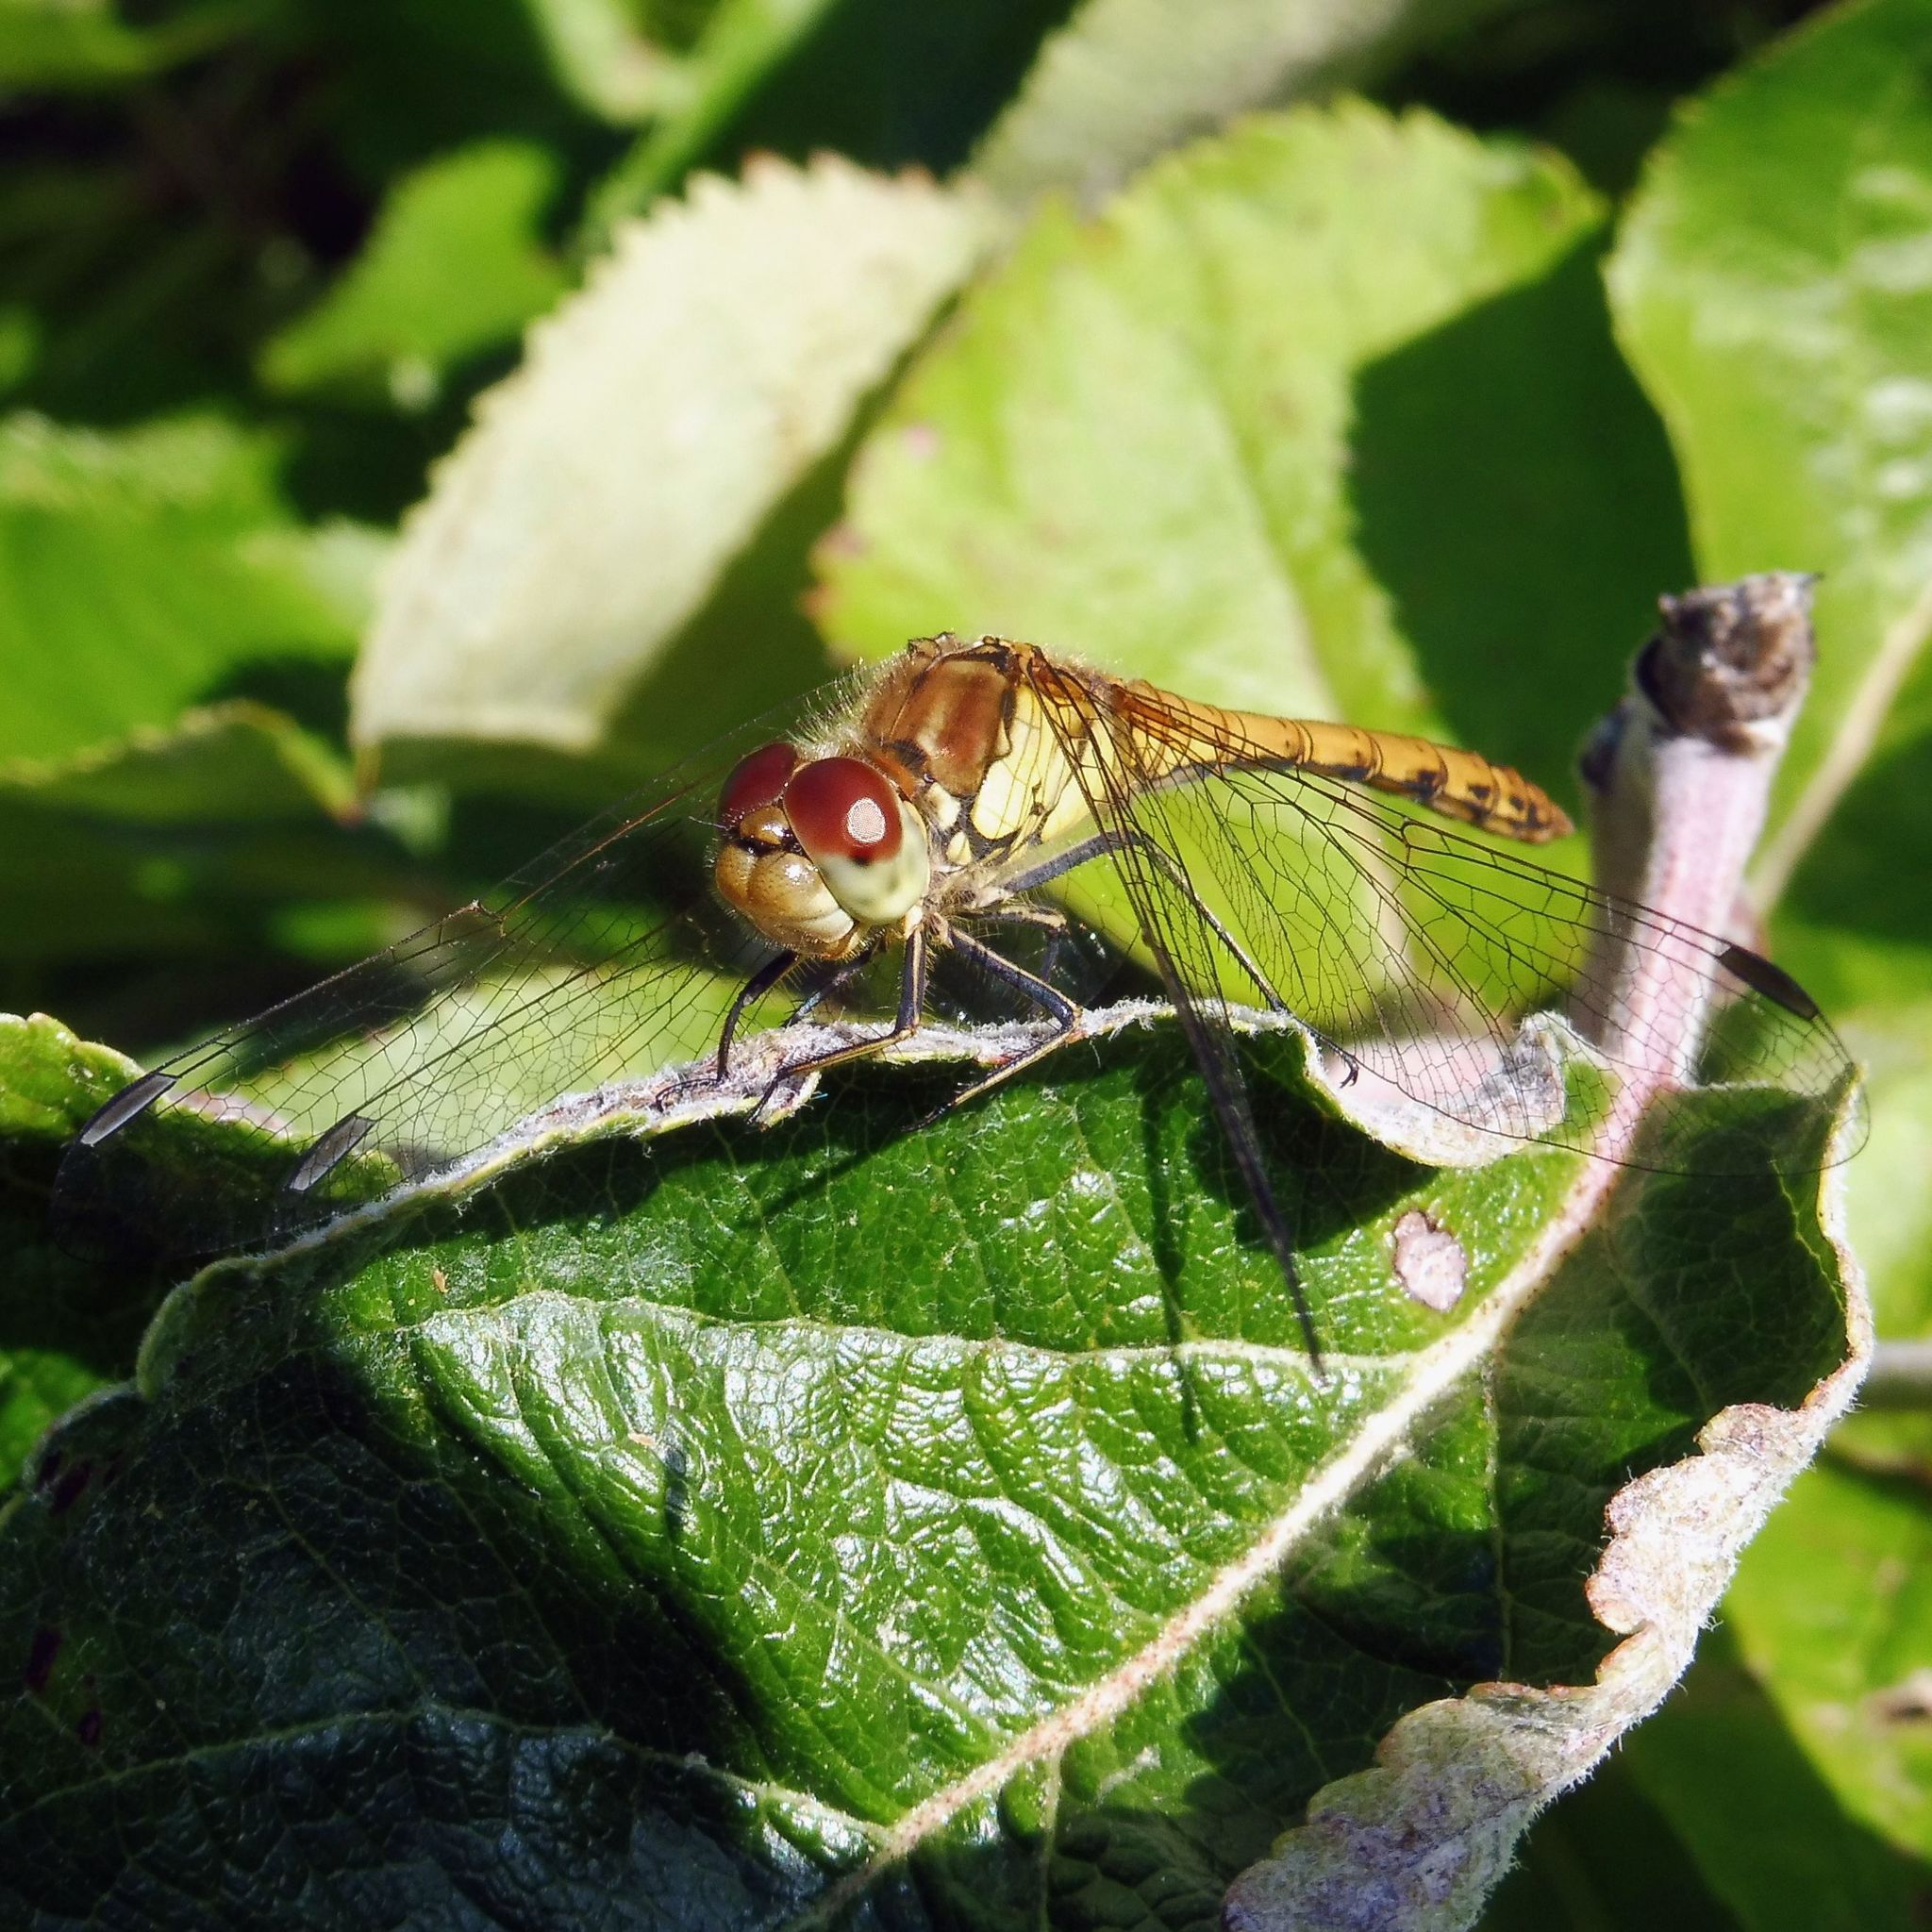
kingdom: Animalia
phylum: Arthropoda
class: Insecta
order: Odonata
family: Libellulidae
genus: Sympetrum
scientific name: Sympetrum striolatum
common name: Common darter
